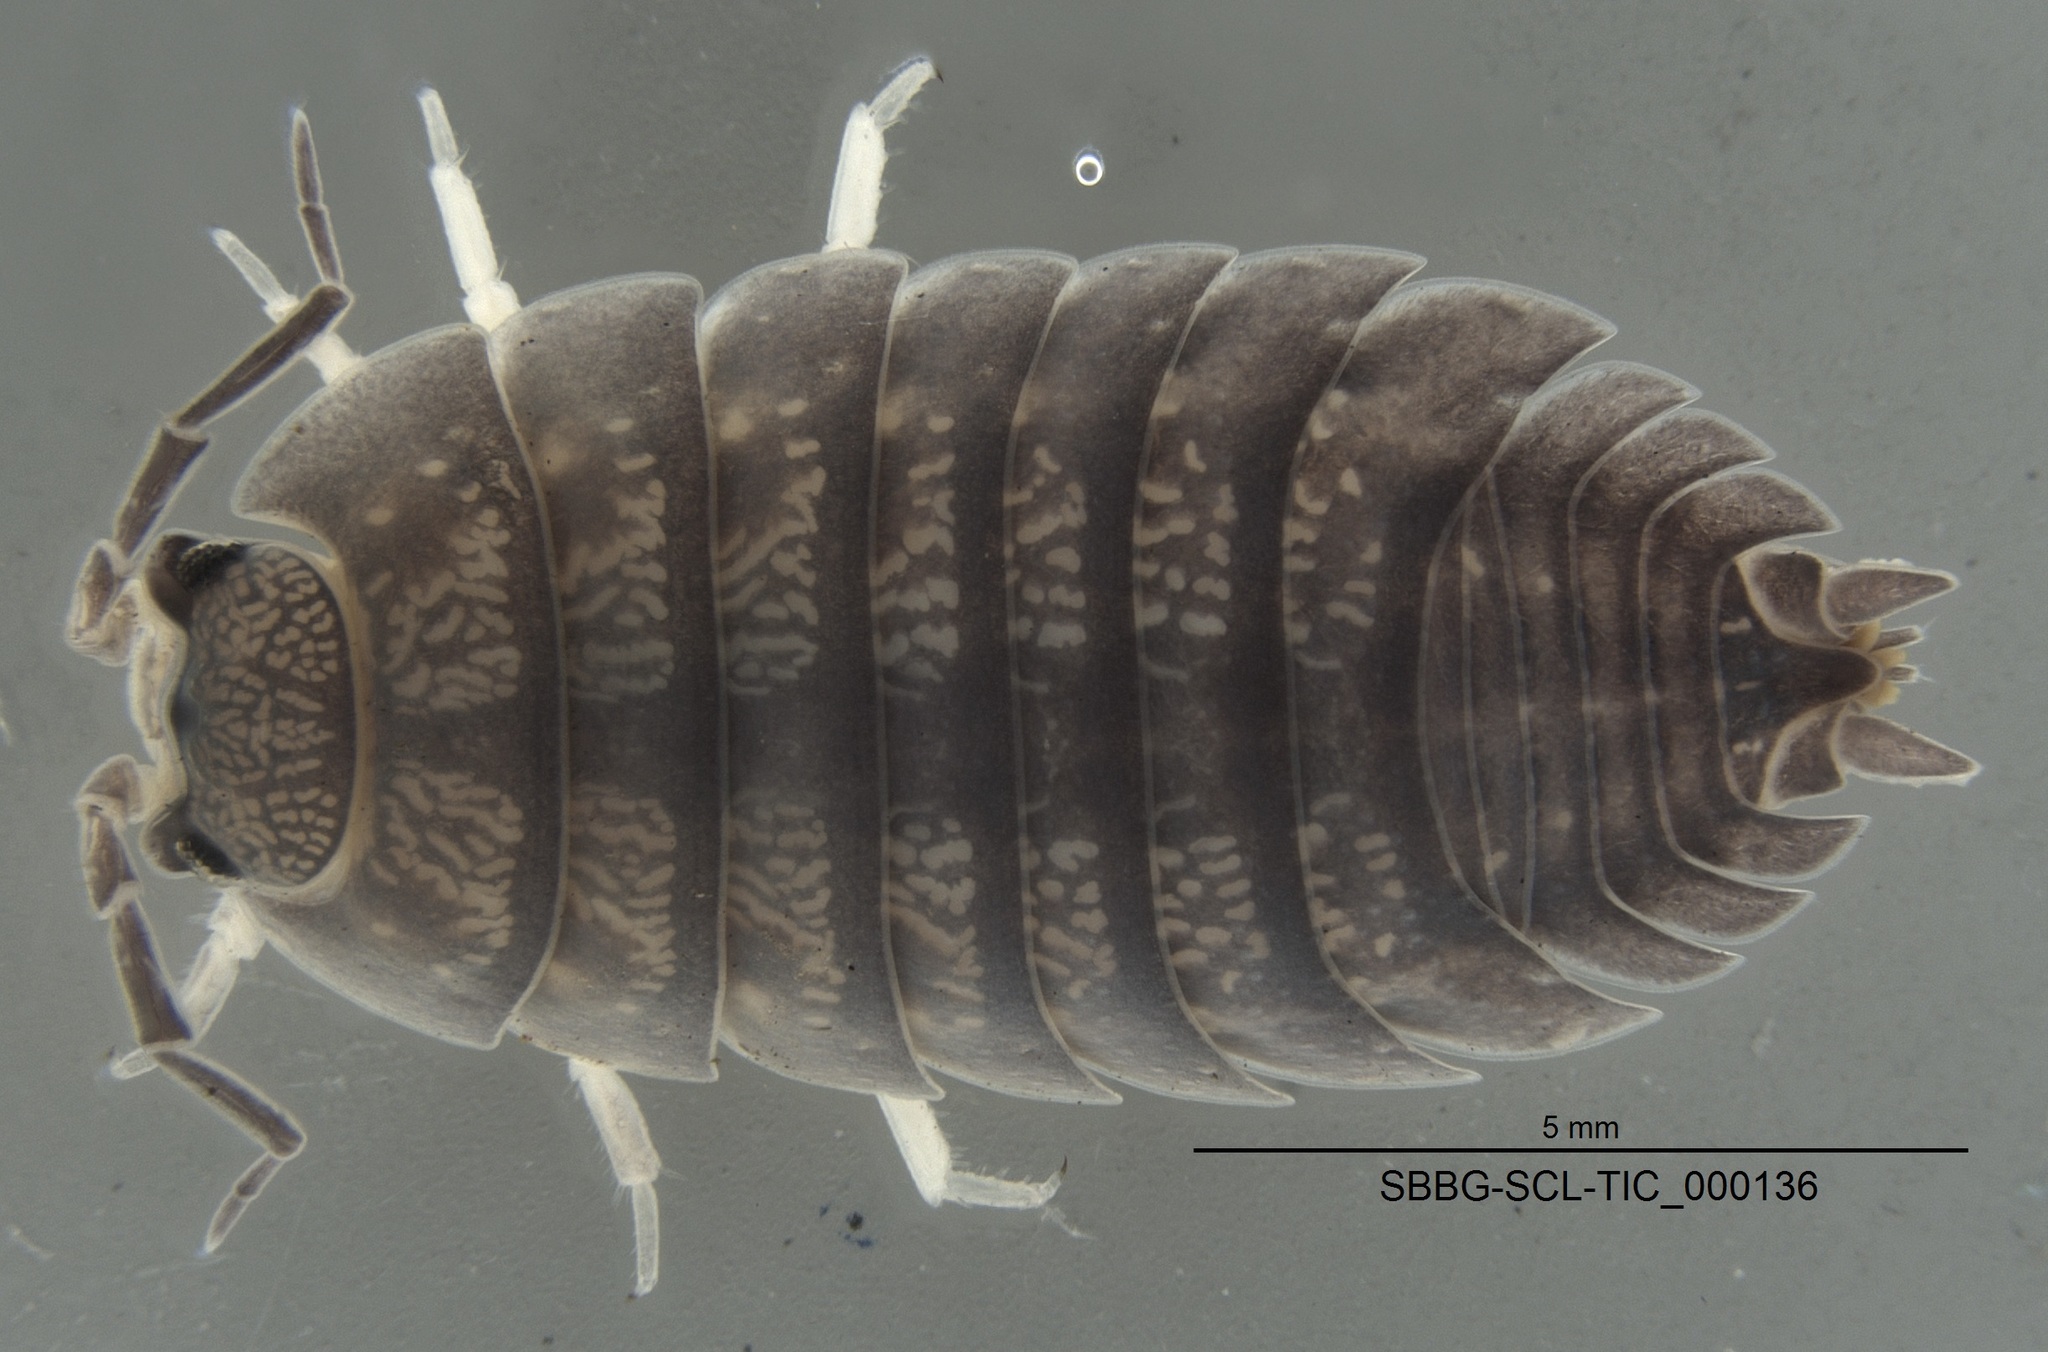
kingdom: Animalia
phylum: Arthropoda
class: Malacostraca
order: Isopoda
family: Porcellionidae
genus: Porcellio
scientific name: Porcellio laevis
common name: Swift woodlouse
